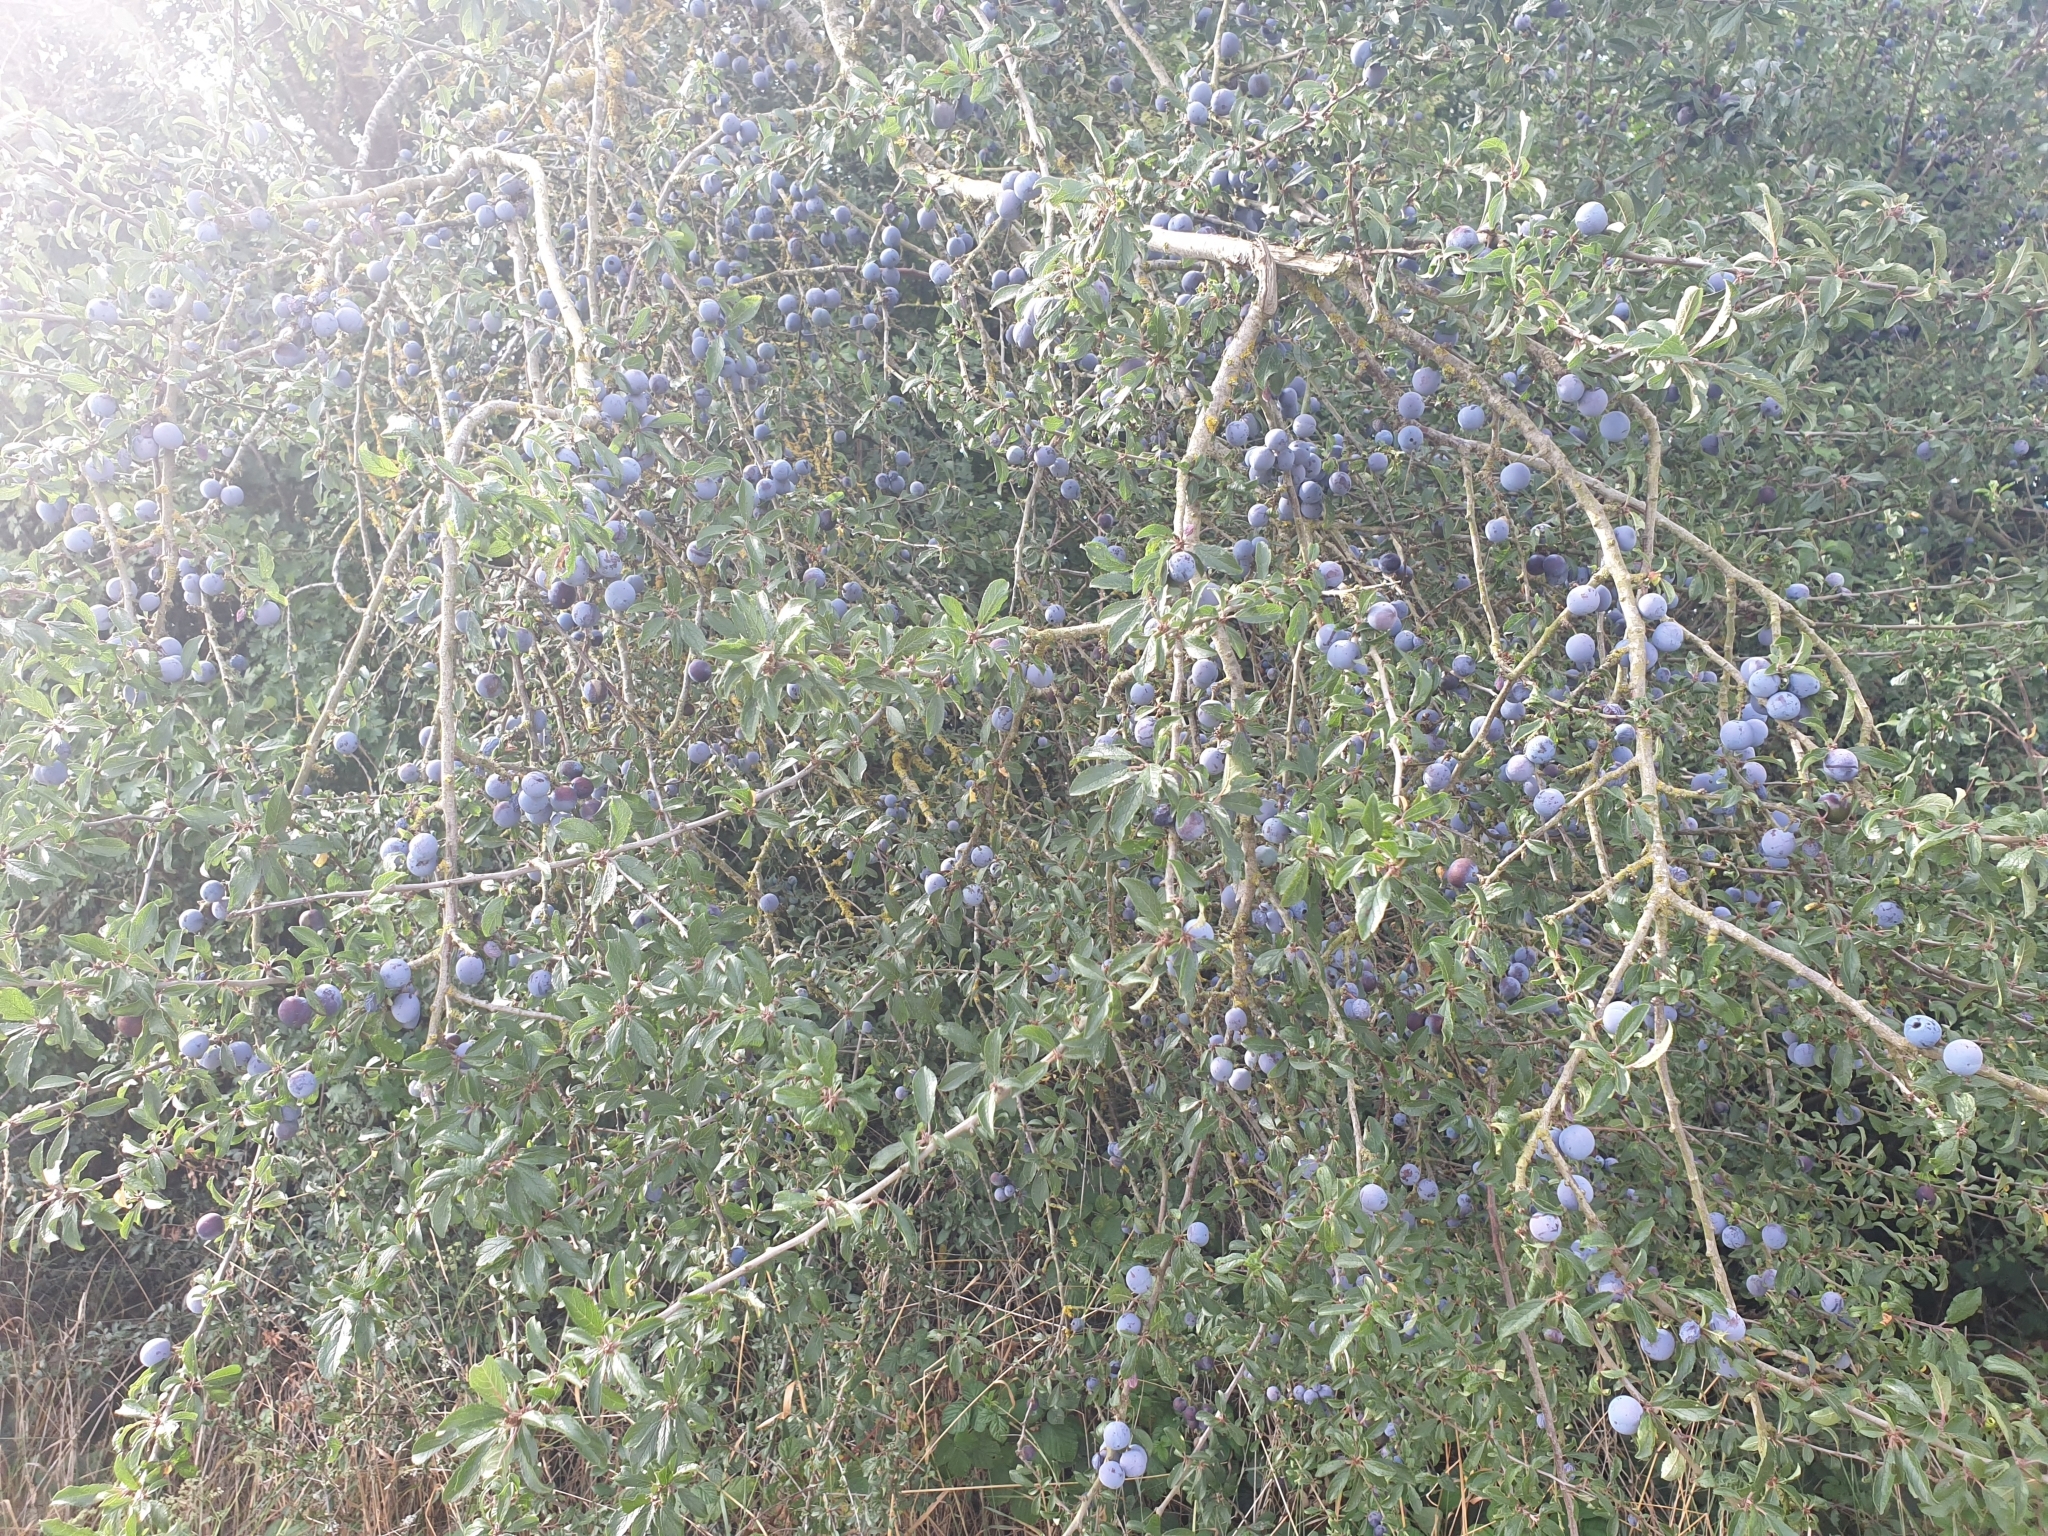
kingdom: Plantae
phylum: Tracheophyta
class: Magnoliopsida
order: Rosales
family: Rosaceae
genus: Prunus
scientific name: Prunus spinosa
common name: Blackthorn
